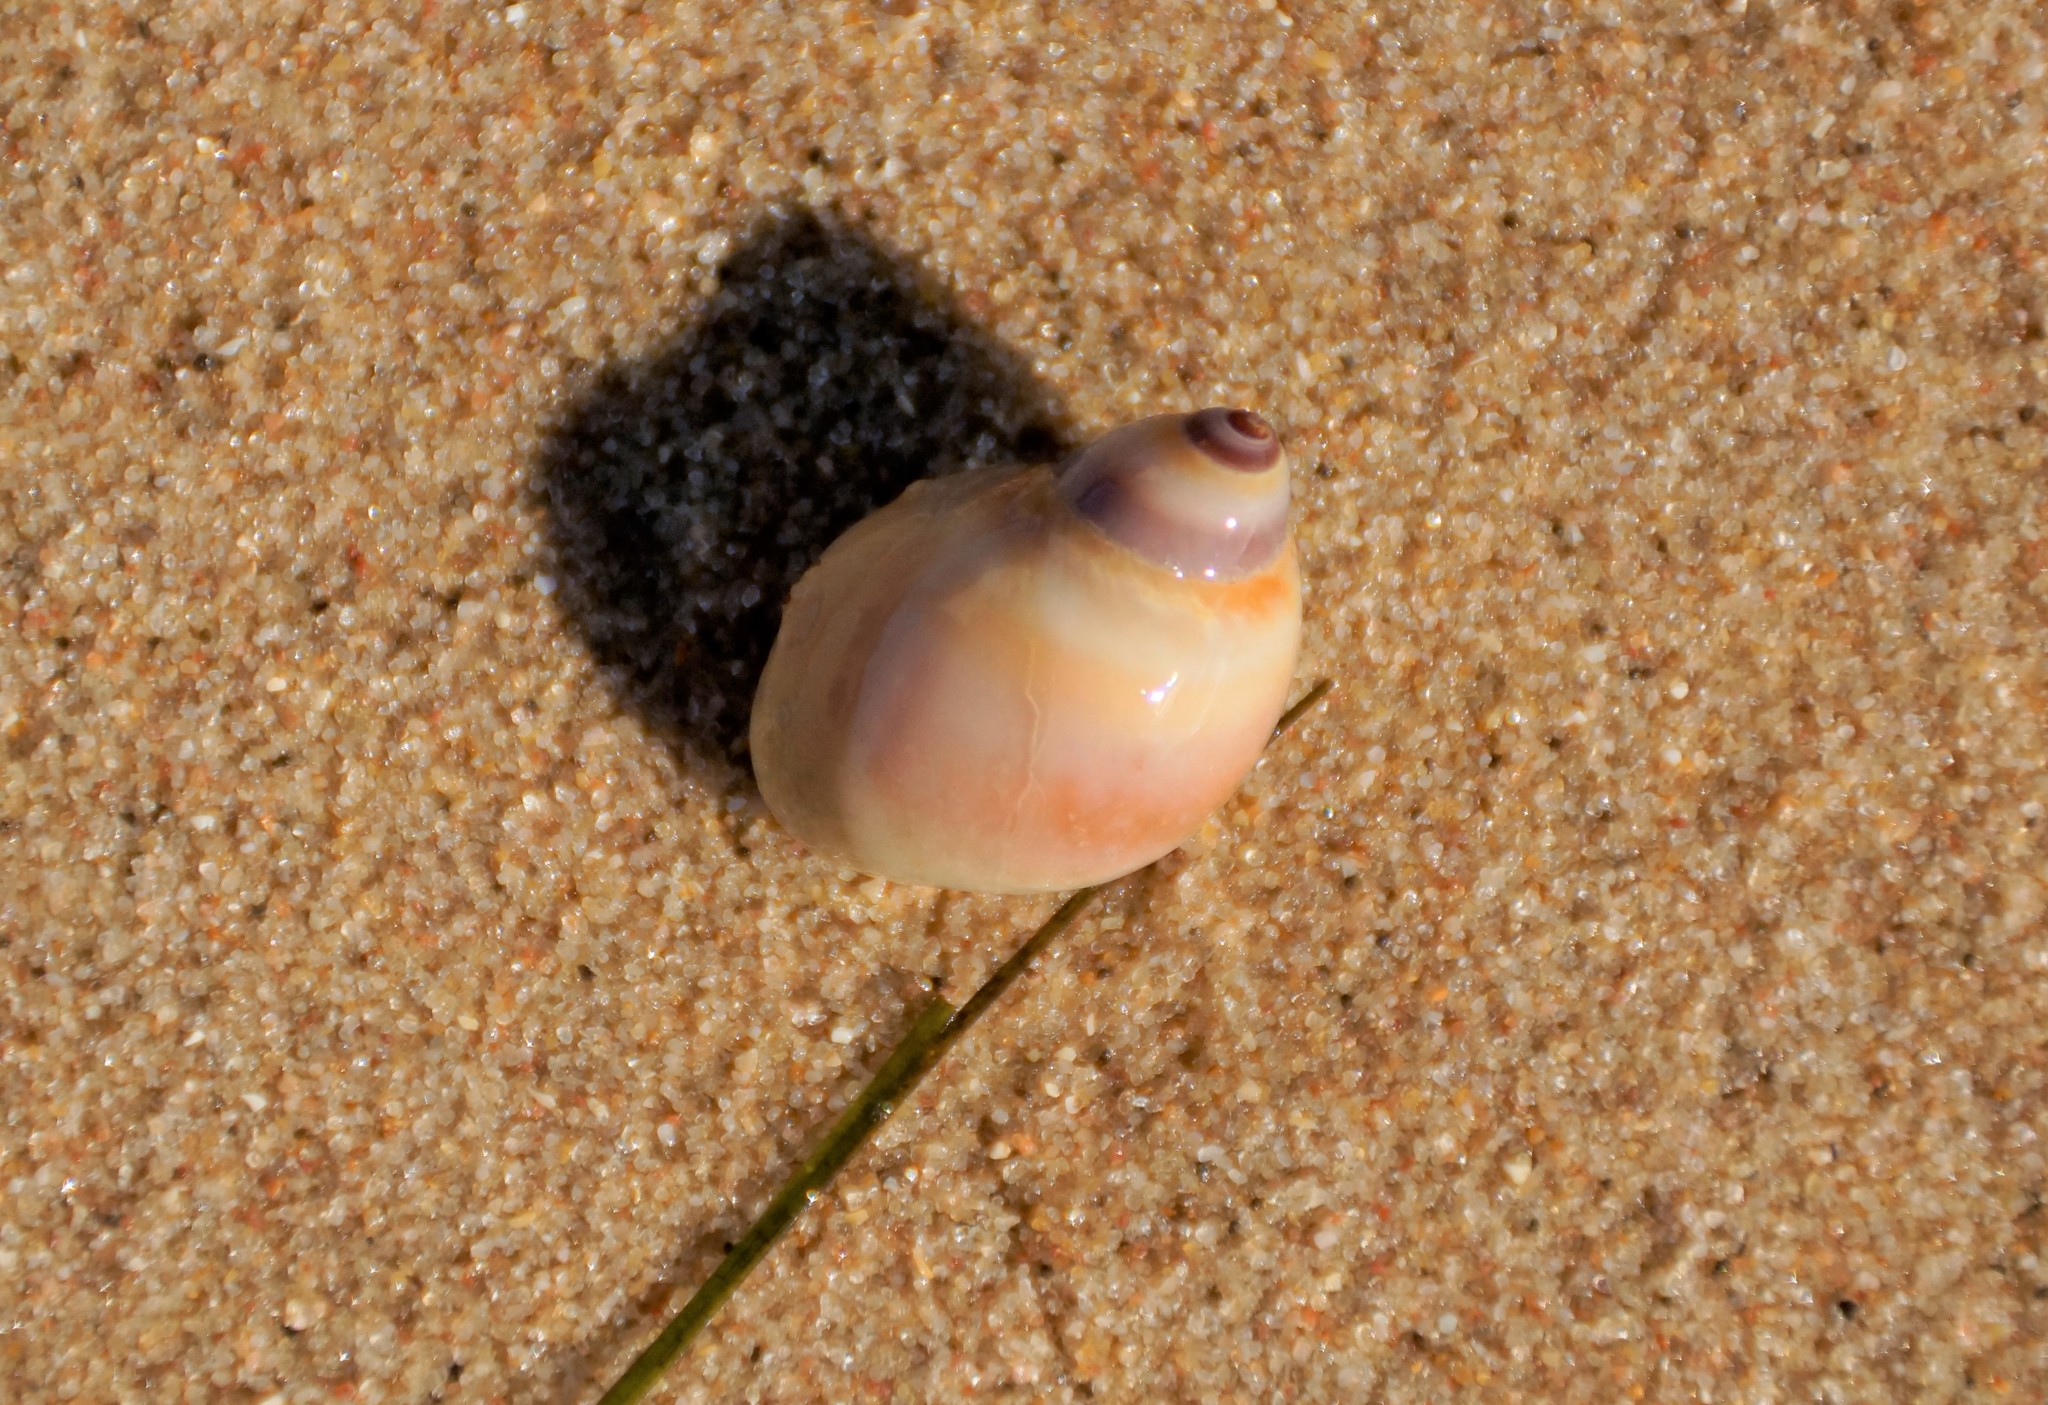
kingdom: Animalia
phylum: Mollusca
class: Gastropoda
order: Littorinimorpha
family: Naticidae
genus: Conuber
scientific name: Conuber conicum
